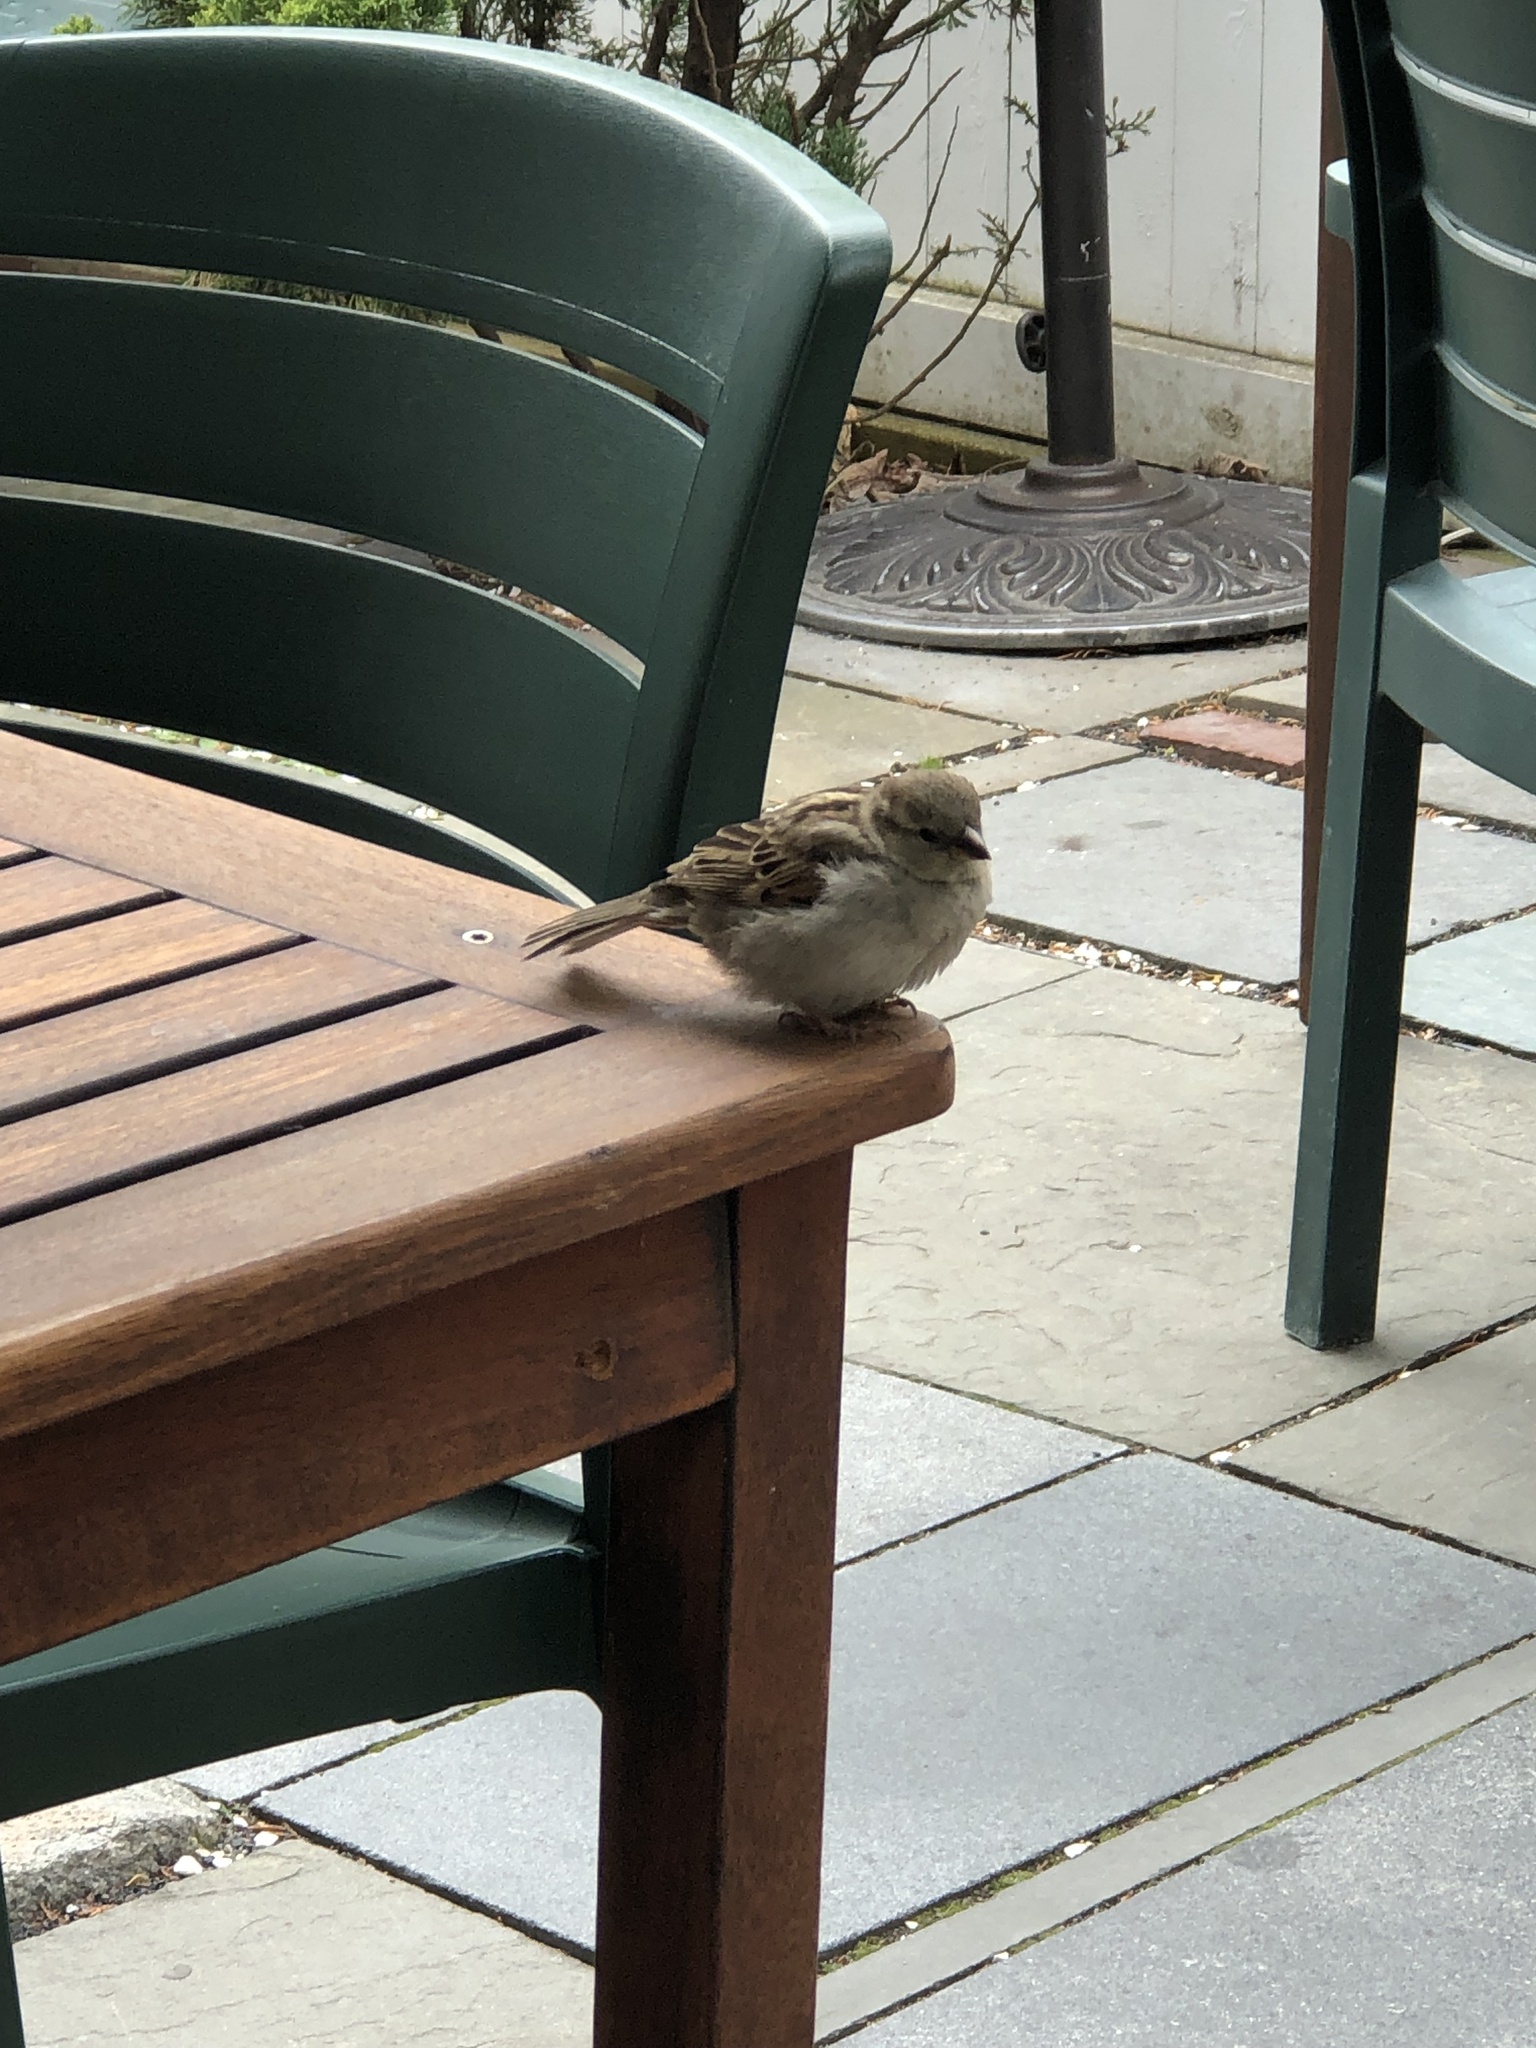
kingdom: Animalia
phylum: Chordata
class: Aves
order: Passeriformes
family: Passeridae
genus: Passer
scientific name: Passer domesticus
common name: House sparrow
